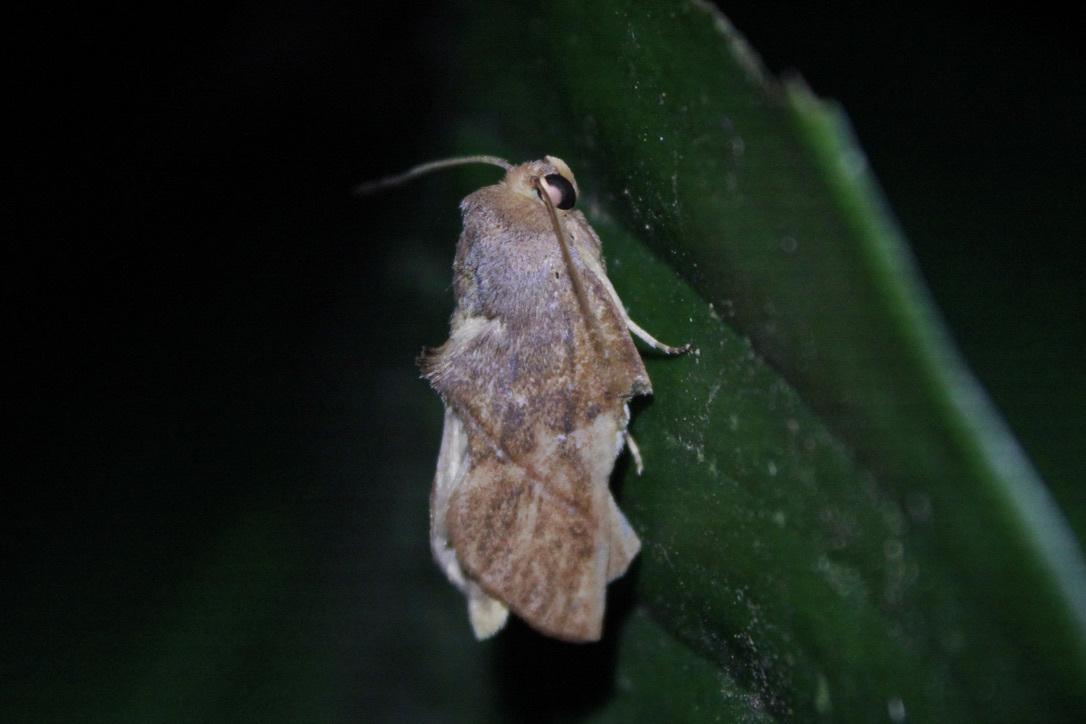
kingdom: Animalia
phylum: Arthropoda
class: Insecta
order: Lepidoptera
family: Notodontidae
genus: Apela
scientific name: Apela divisa
